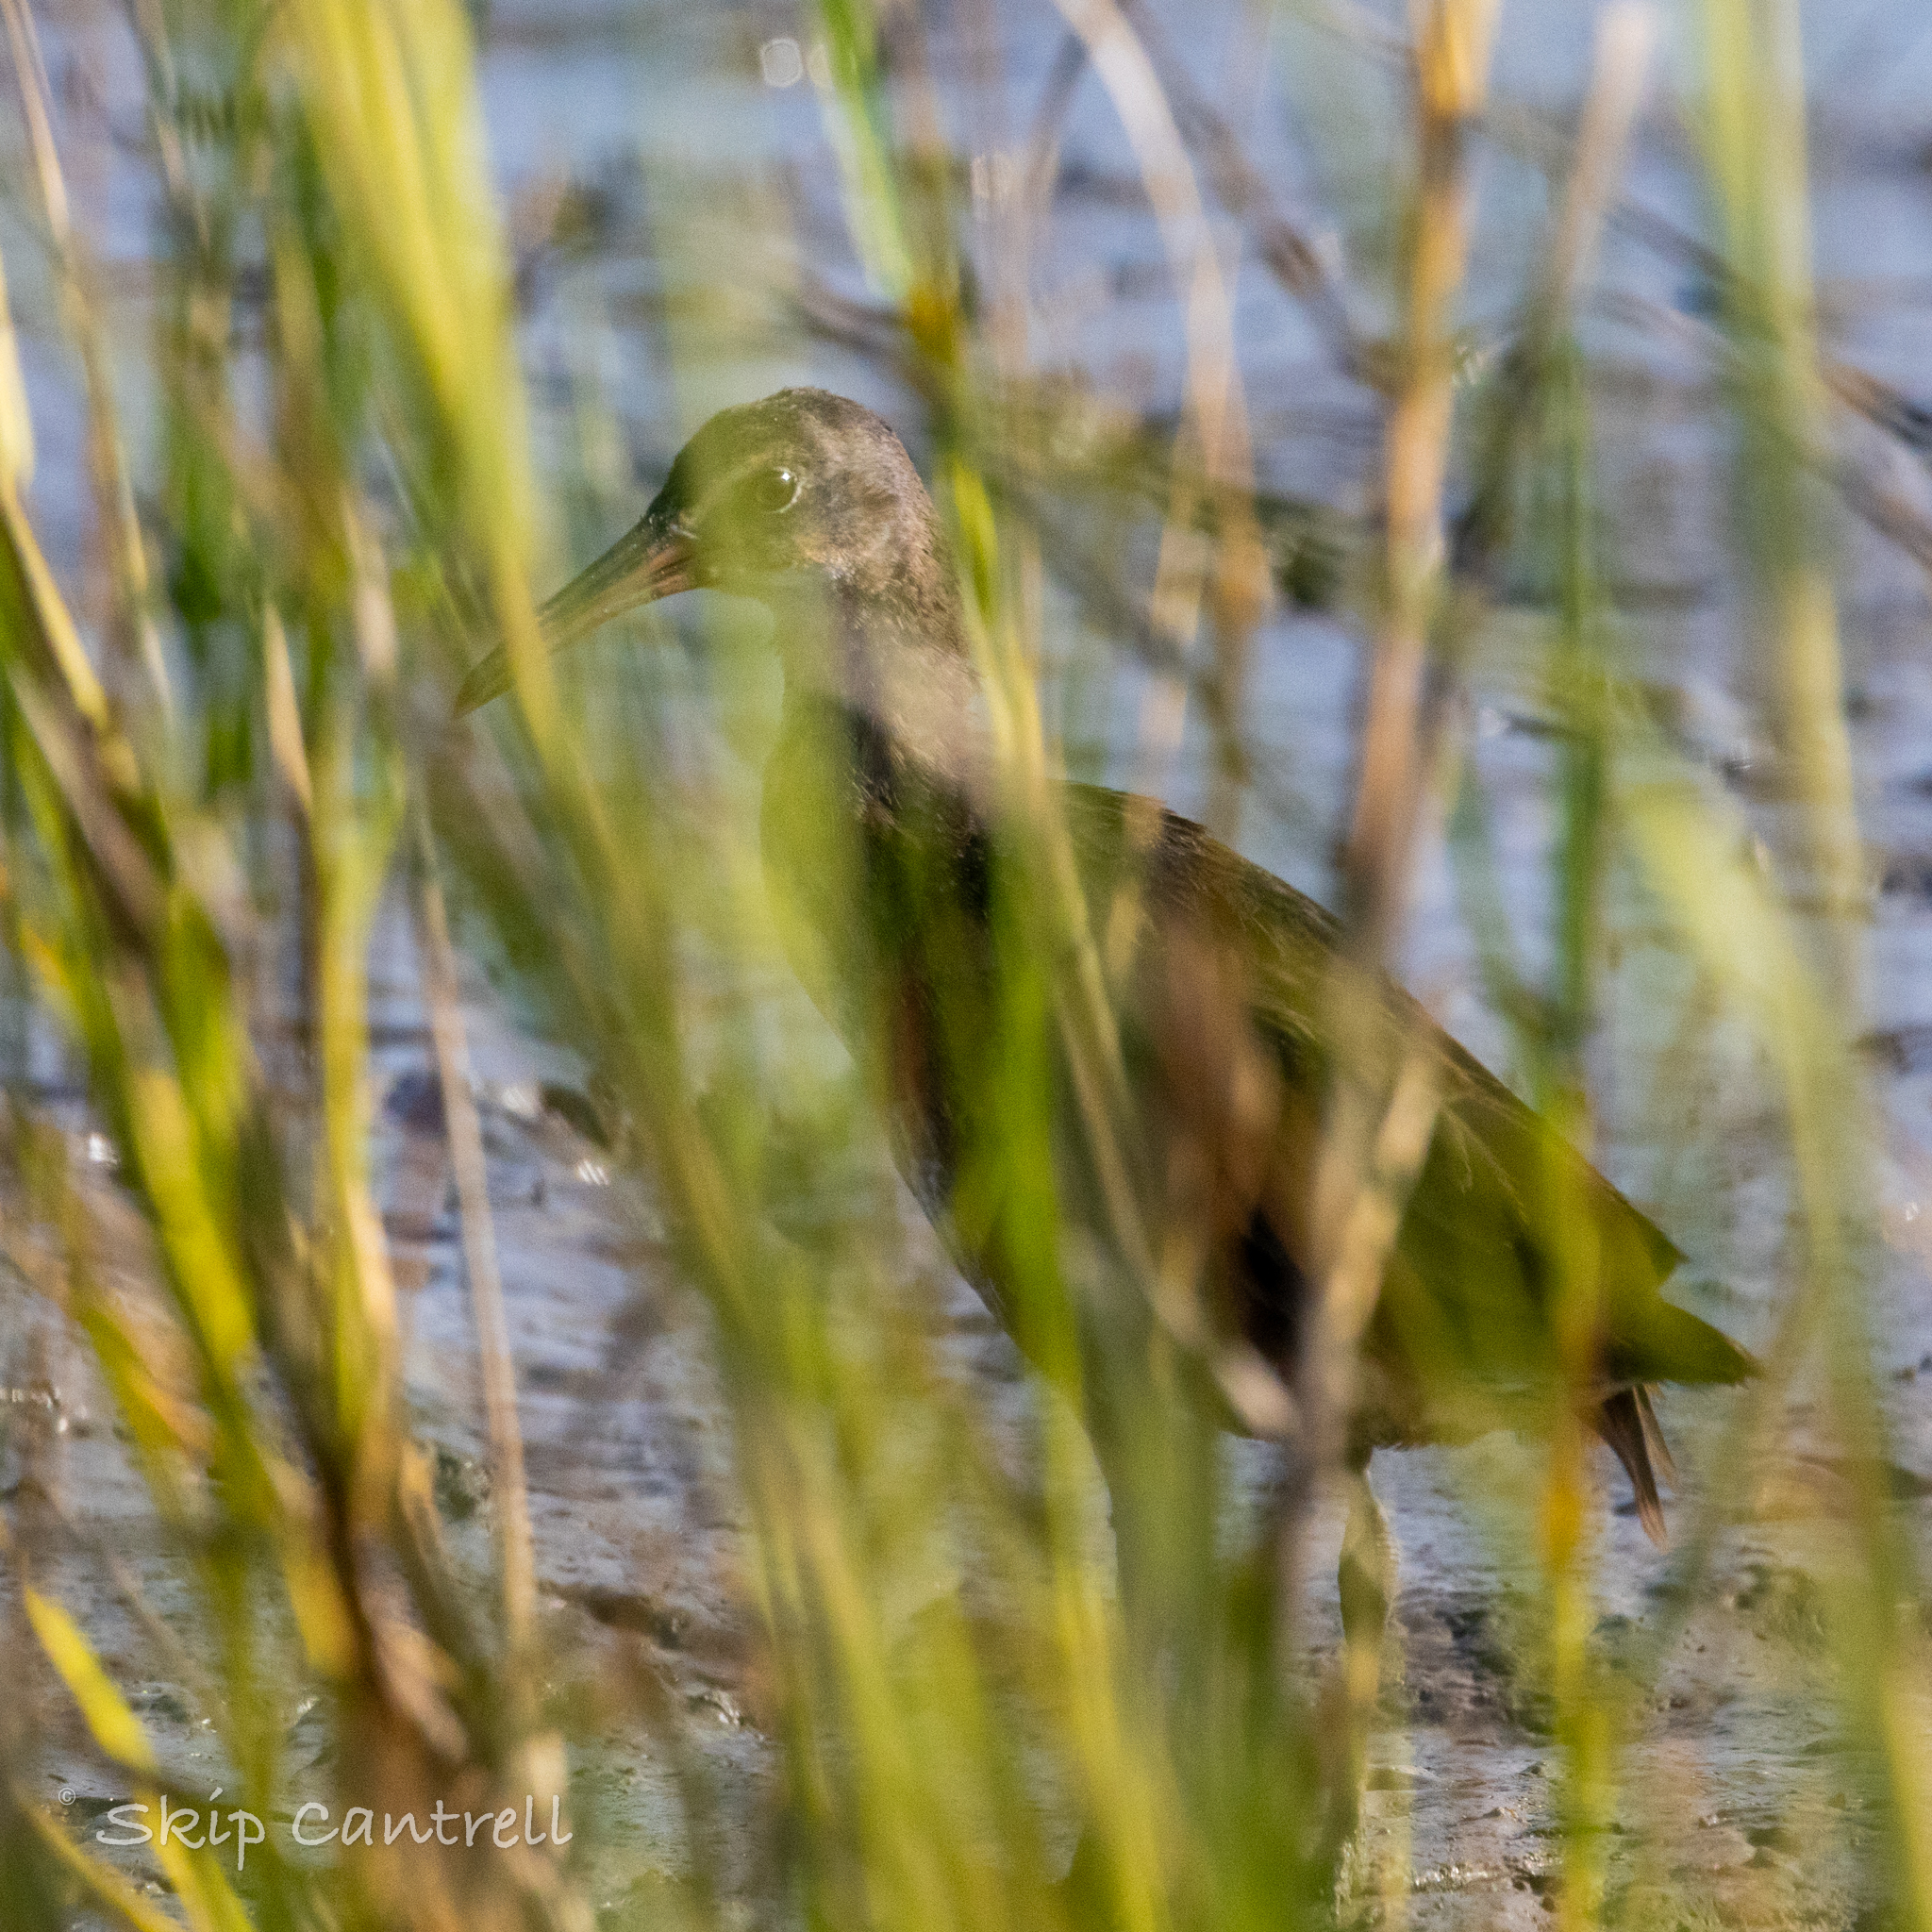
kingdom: Animalia
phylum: Chordata
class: Aves
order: Gruiformes
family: Rallidae
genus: Rallus
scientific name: Rallus crepitans
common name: Clapper rail
